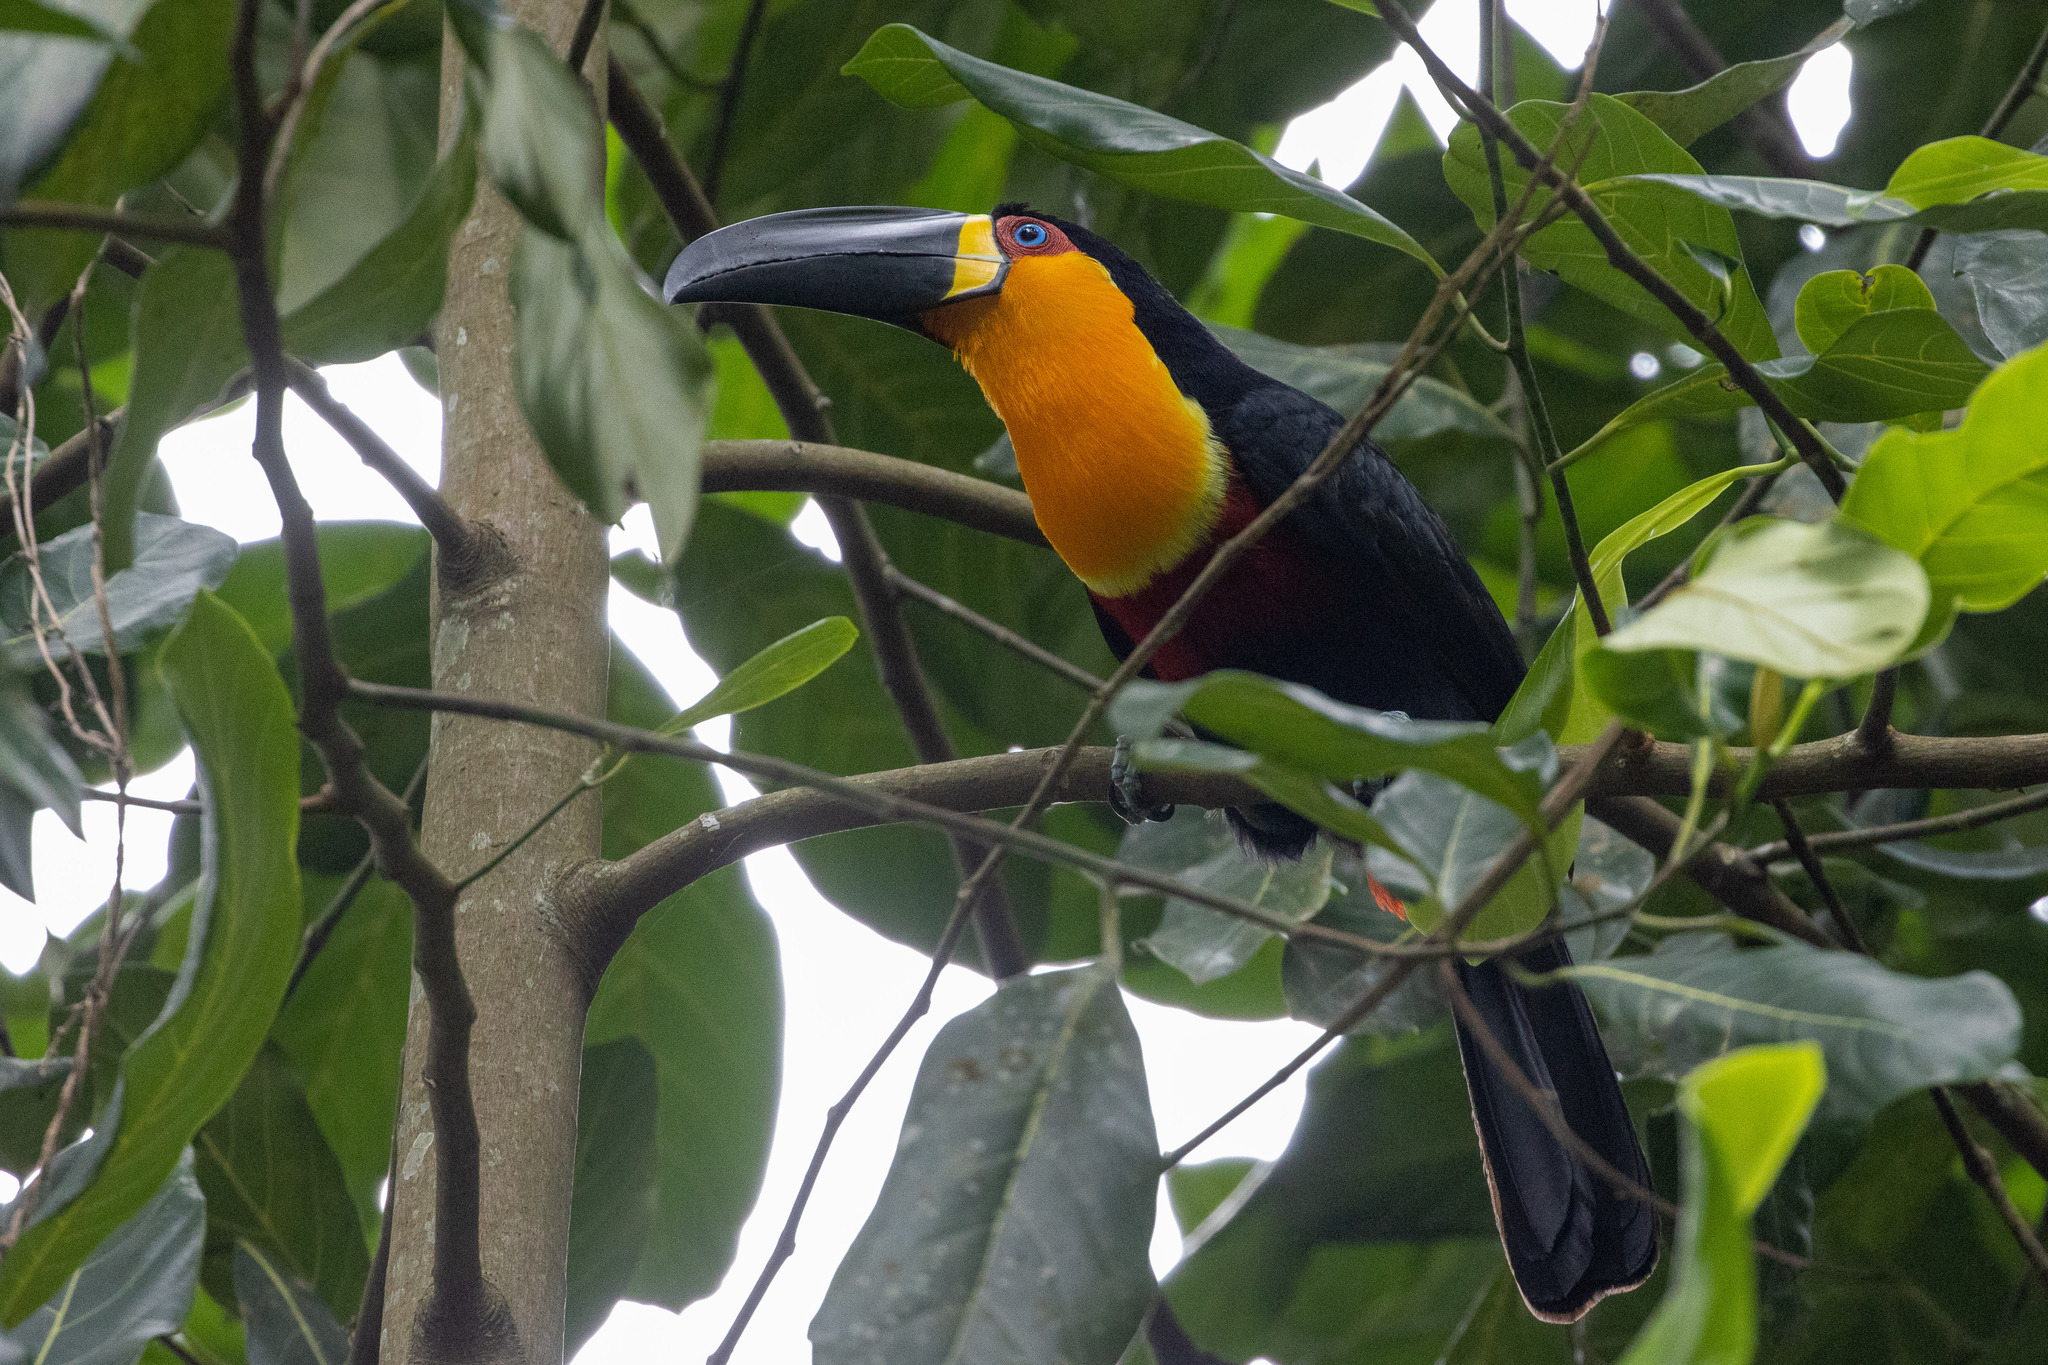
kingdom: Animalia
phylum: Chordata
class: Aves
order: Piciformes
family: Ramphastidae
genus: Ramphastos
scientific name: Ramphastos vitellinus
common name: Channel-billed toucan
